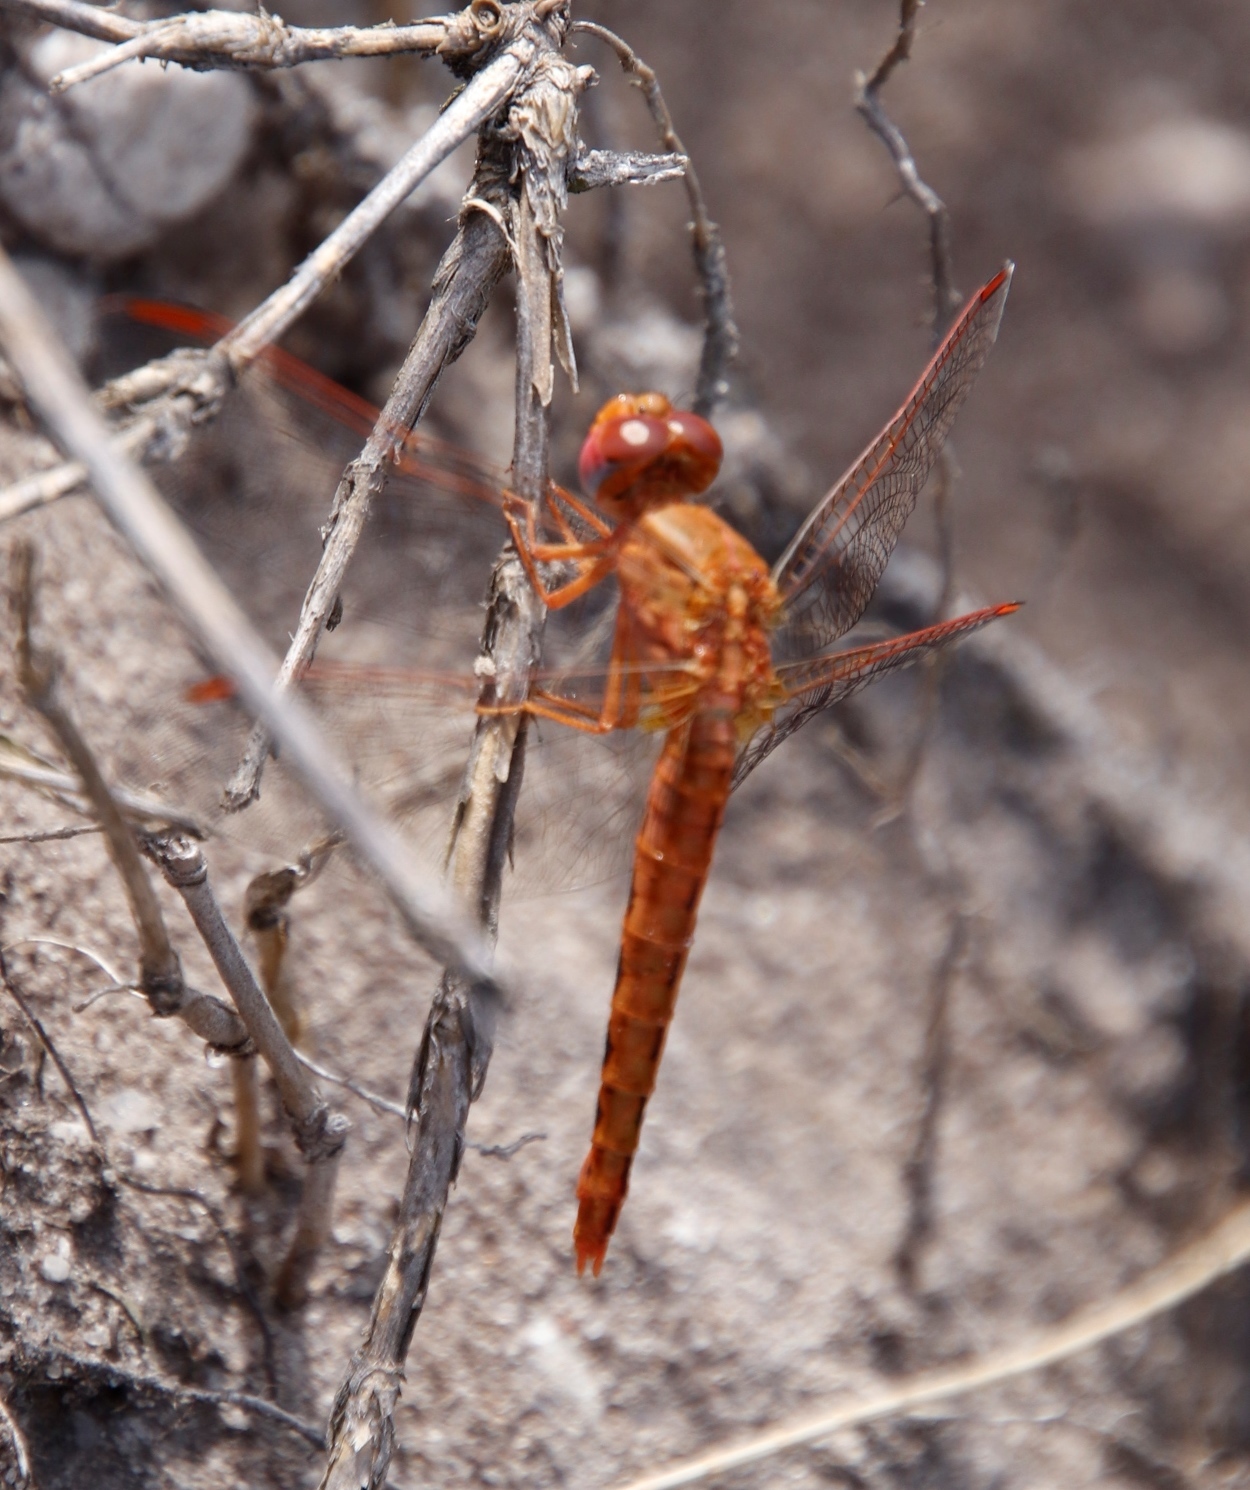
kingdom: Animalia
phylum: Arthropoda
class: Insecta
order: Odonata
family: Libellulidae
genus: Crocothemis
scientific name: Crocothemis sanguinolenta
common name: Little scarlet
